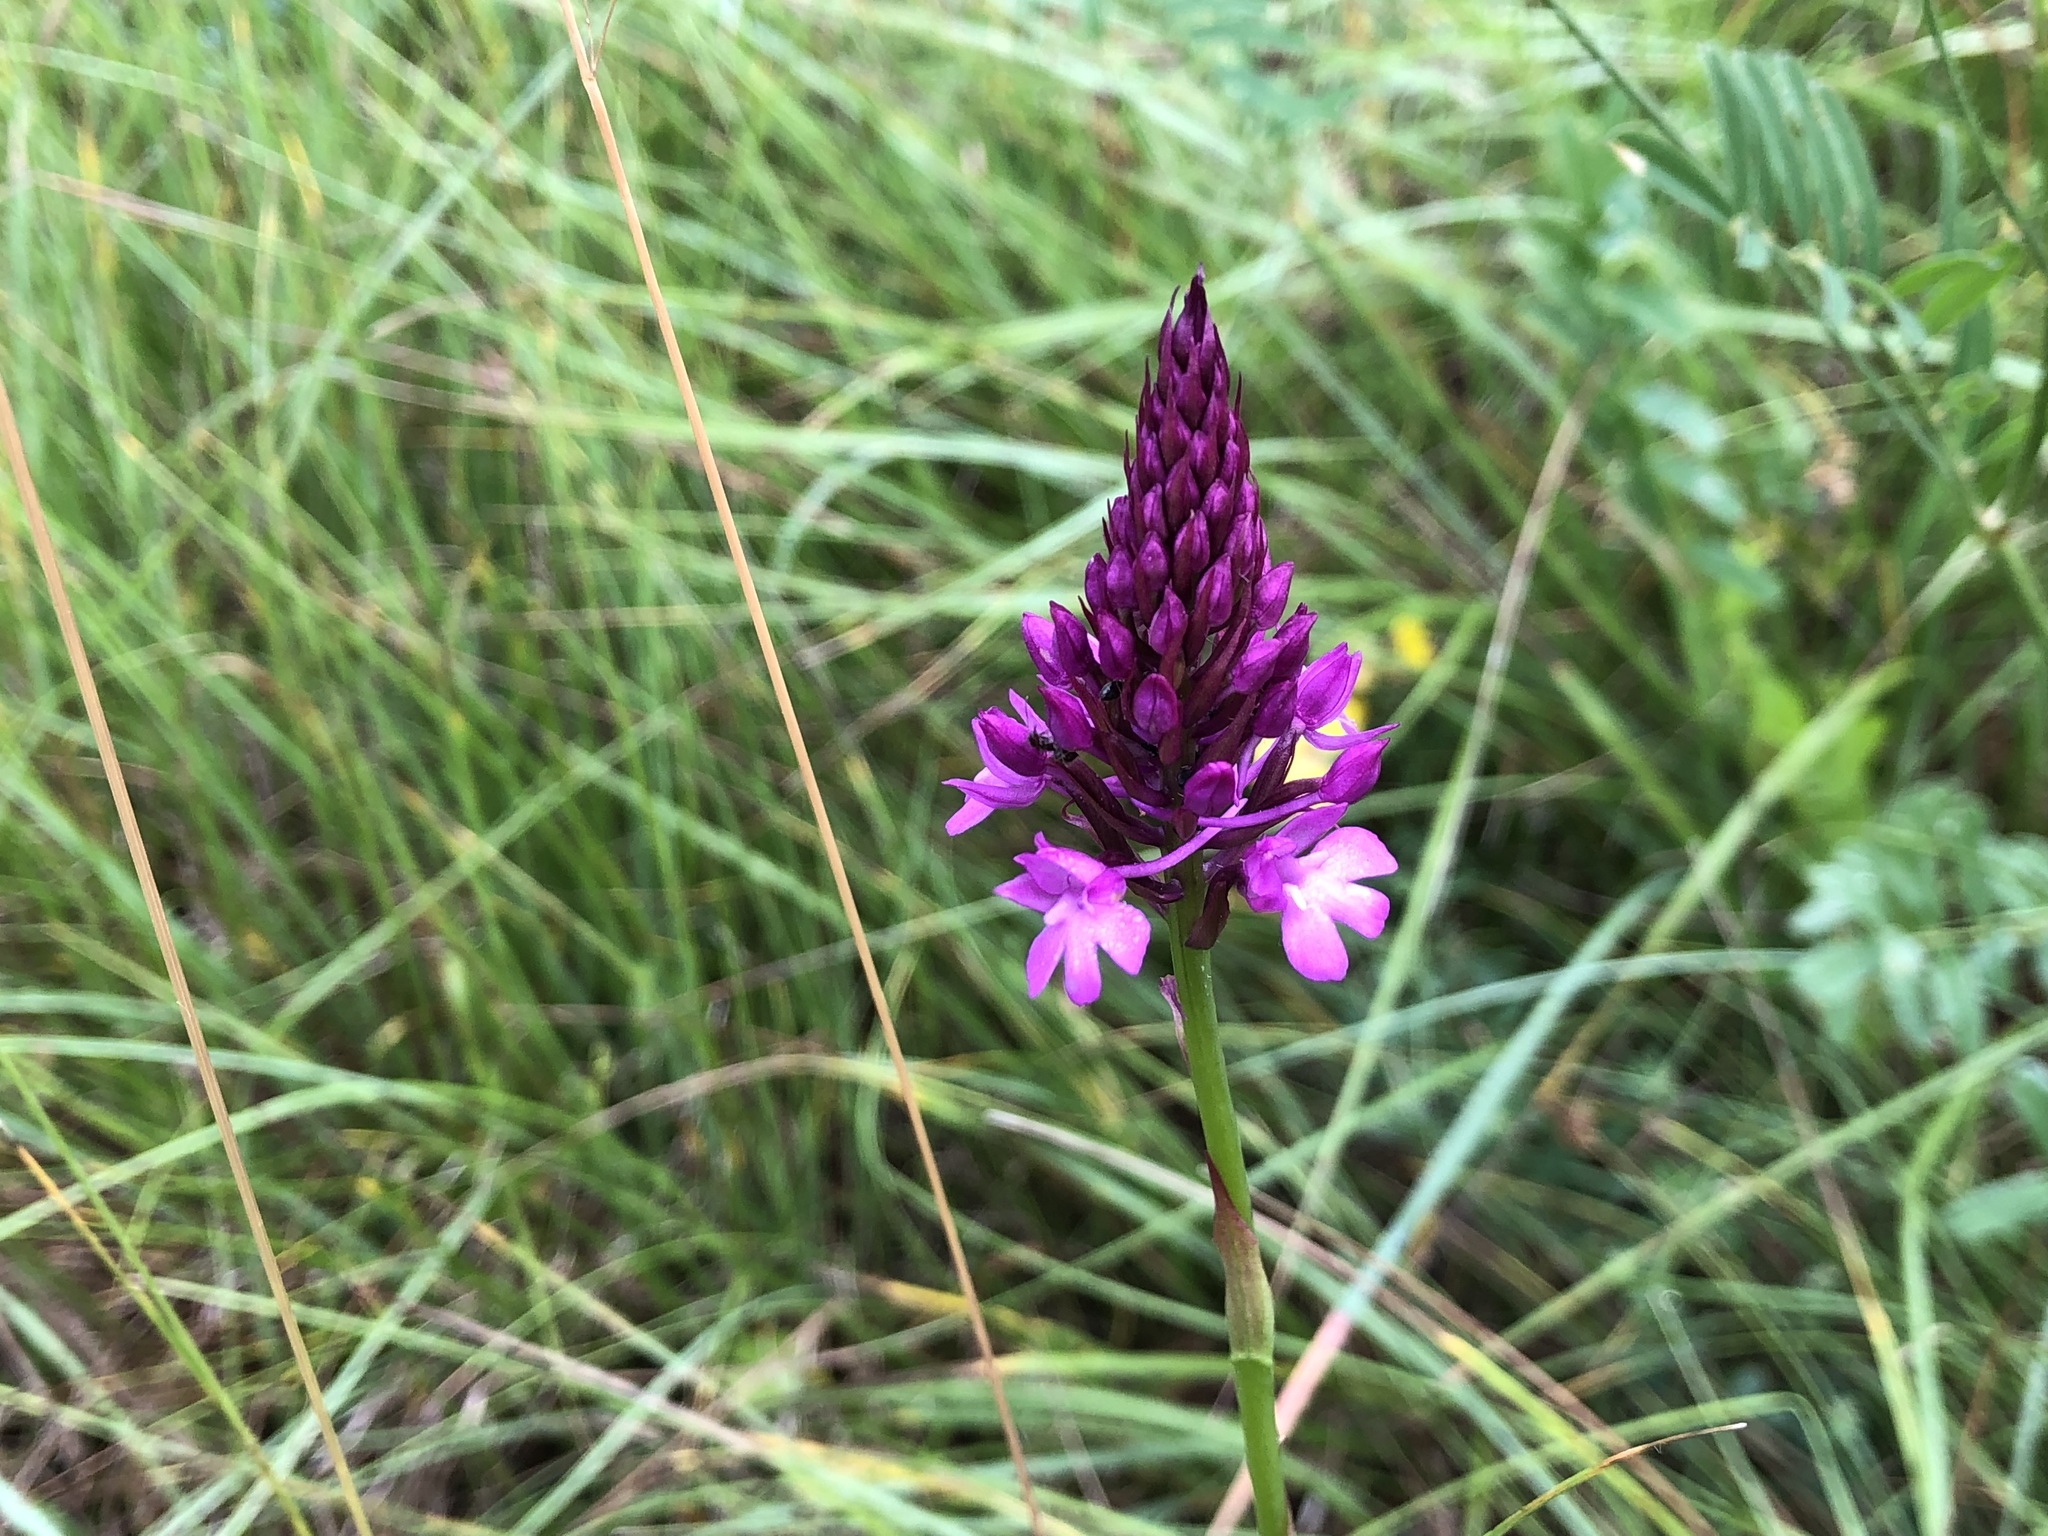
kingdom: Plantae
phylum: Tracheophyta
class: Liliopsida
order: Asparagales
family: Orchidaceae
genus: Anacamptis
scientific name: Anacamptis pyramidalis
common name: Pyramidal orchid
